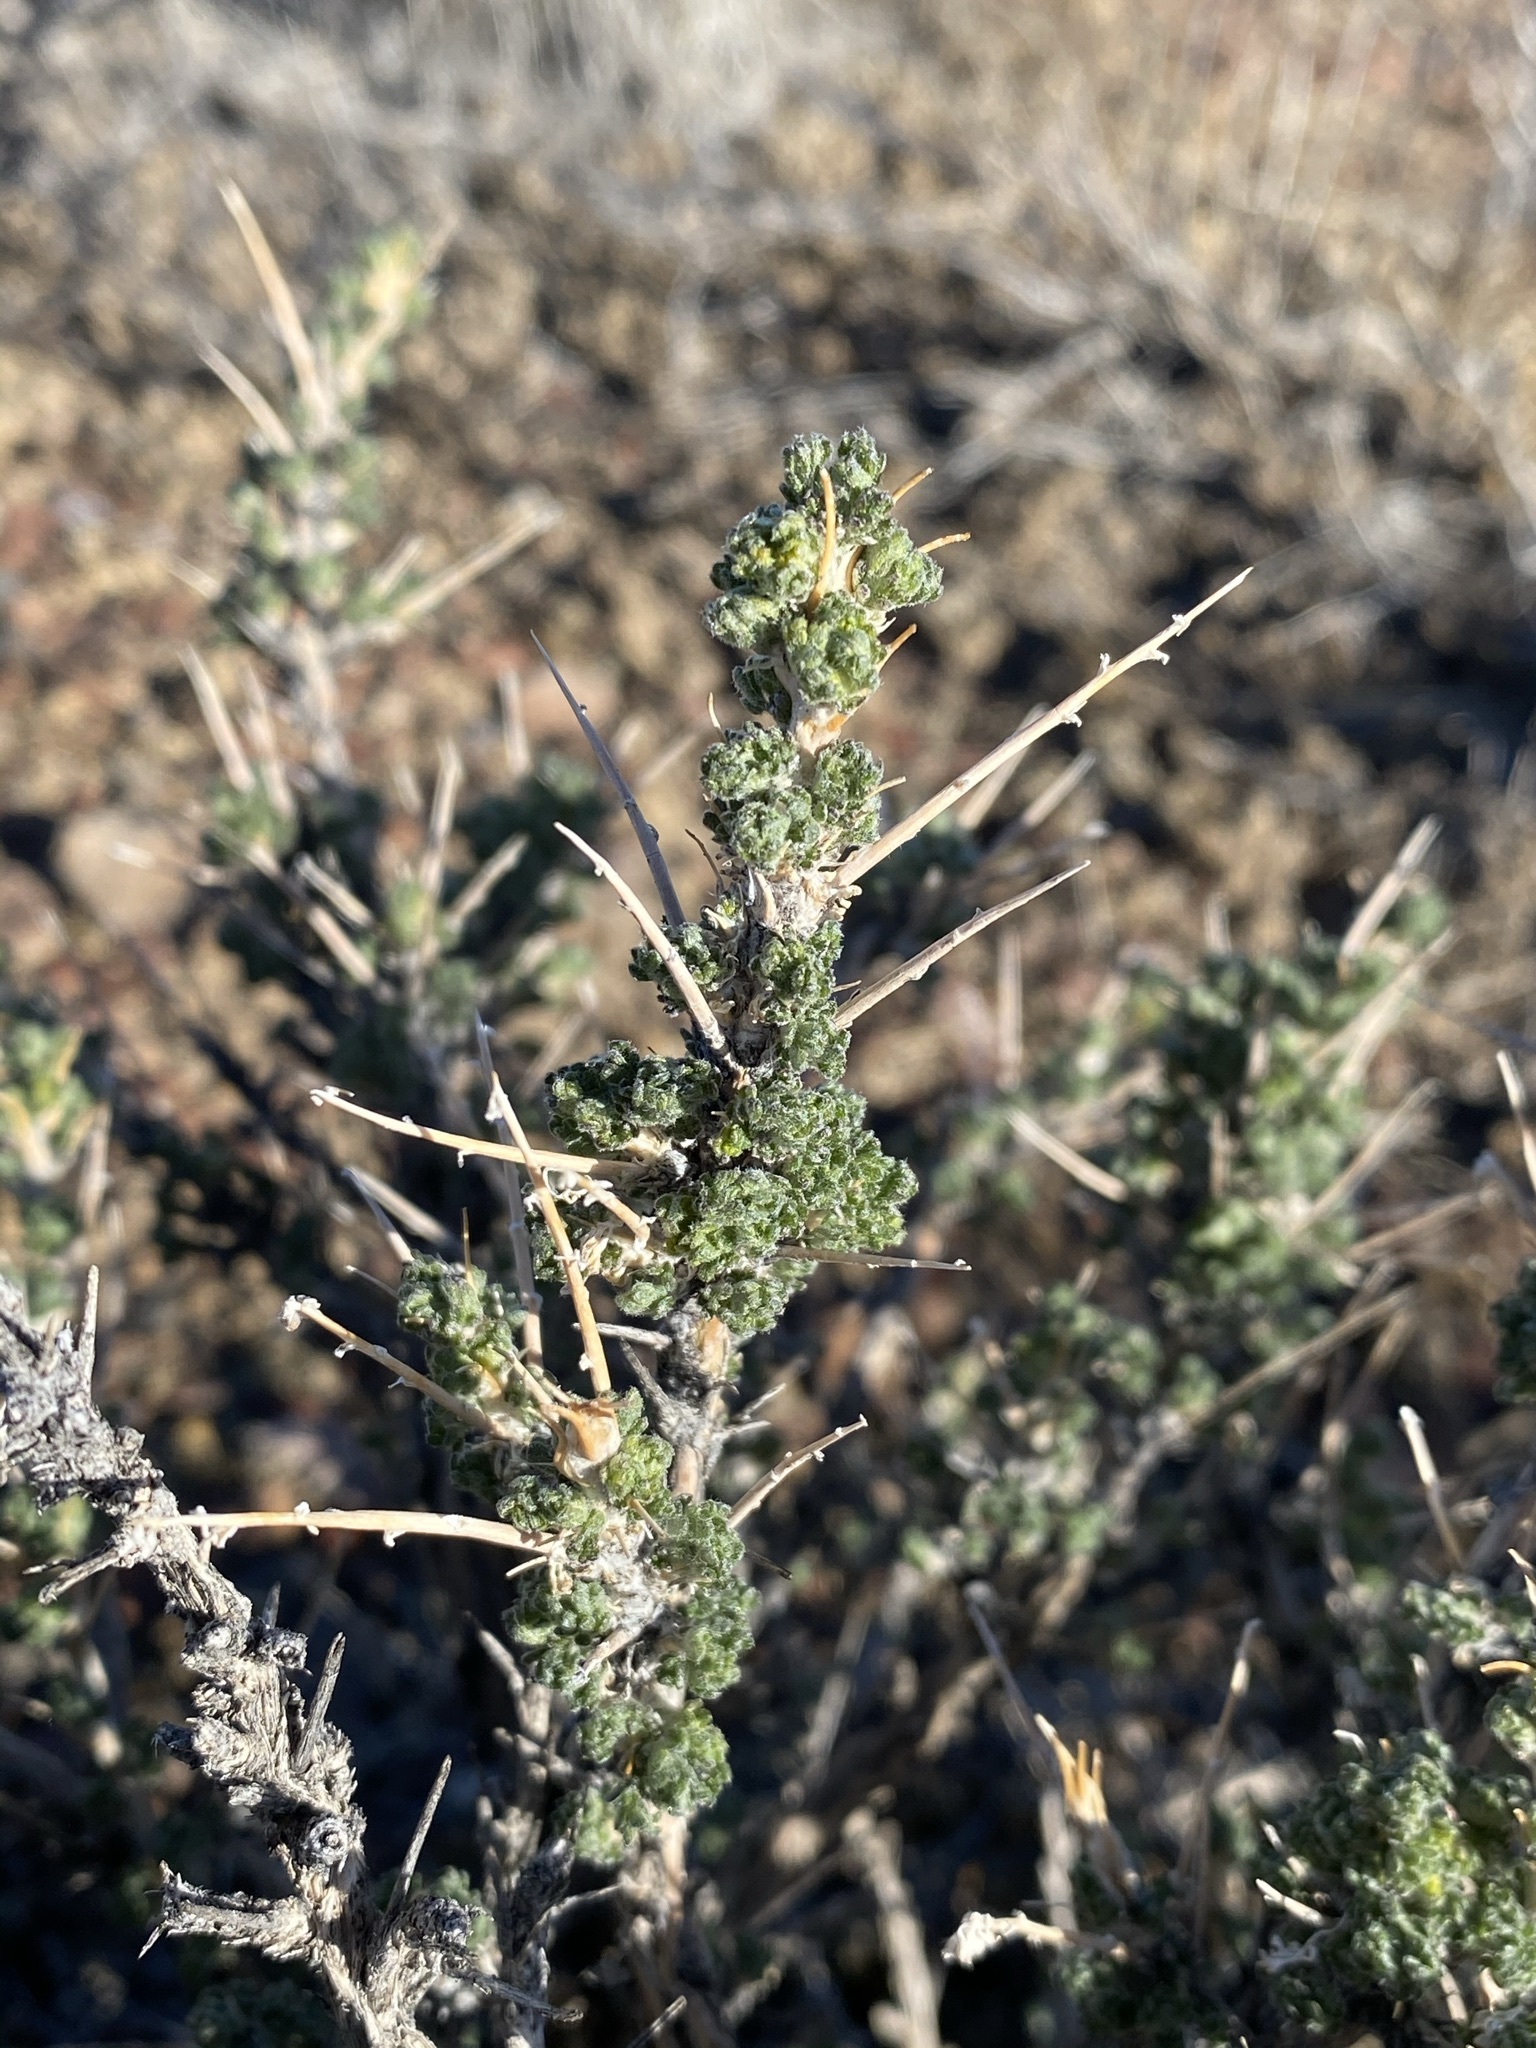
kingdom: Plantae
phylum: Tracheophyta
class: Magnoliopsida
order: Asterales
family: Asteraceae
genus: Artemisia
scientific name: Artemisia spinescens
